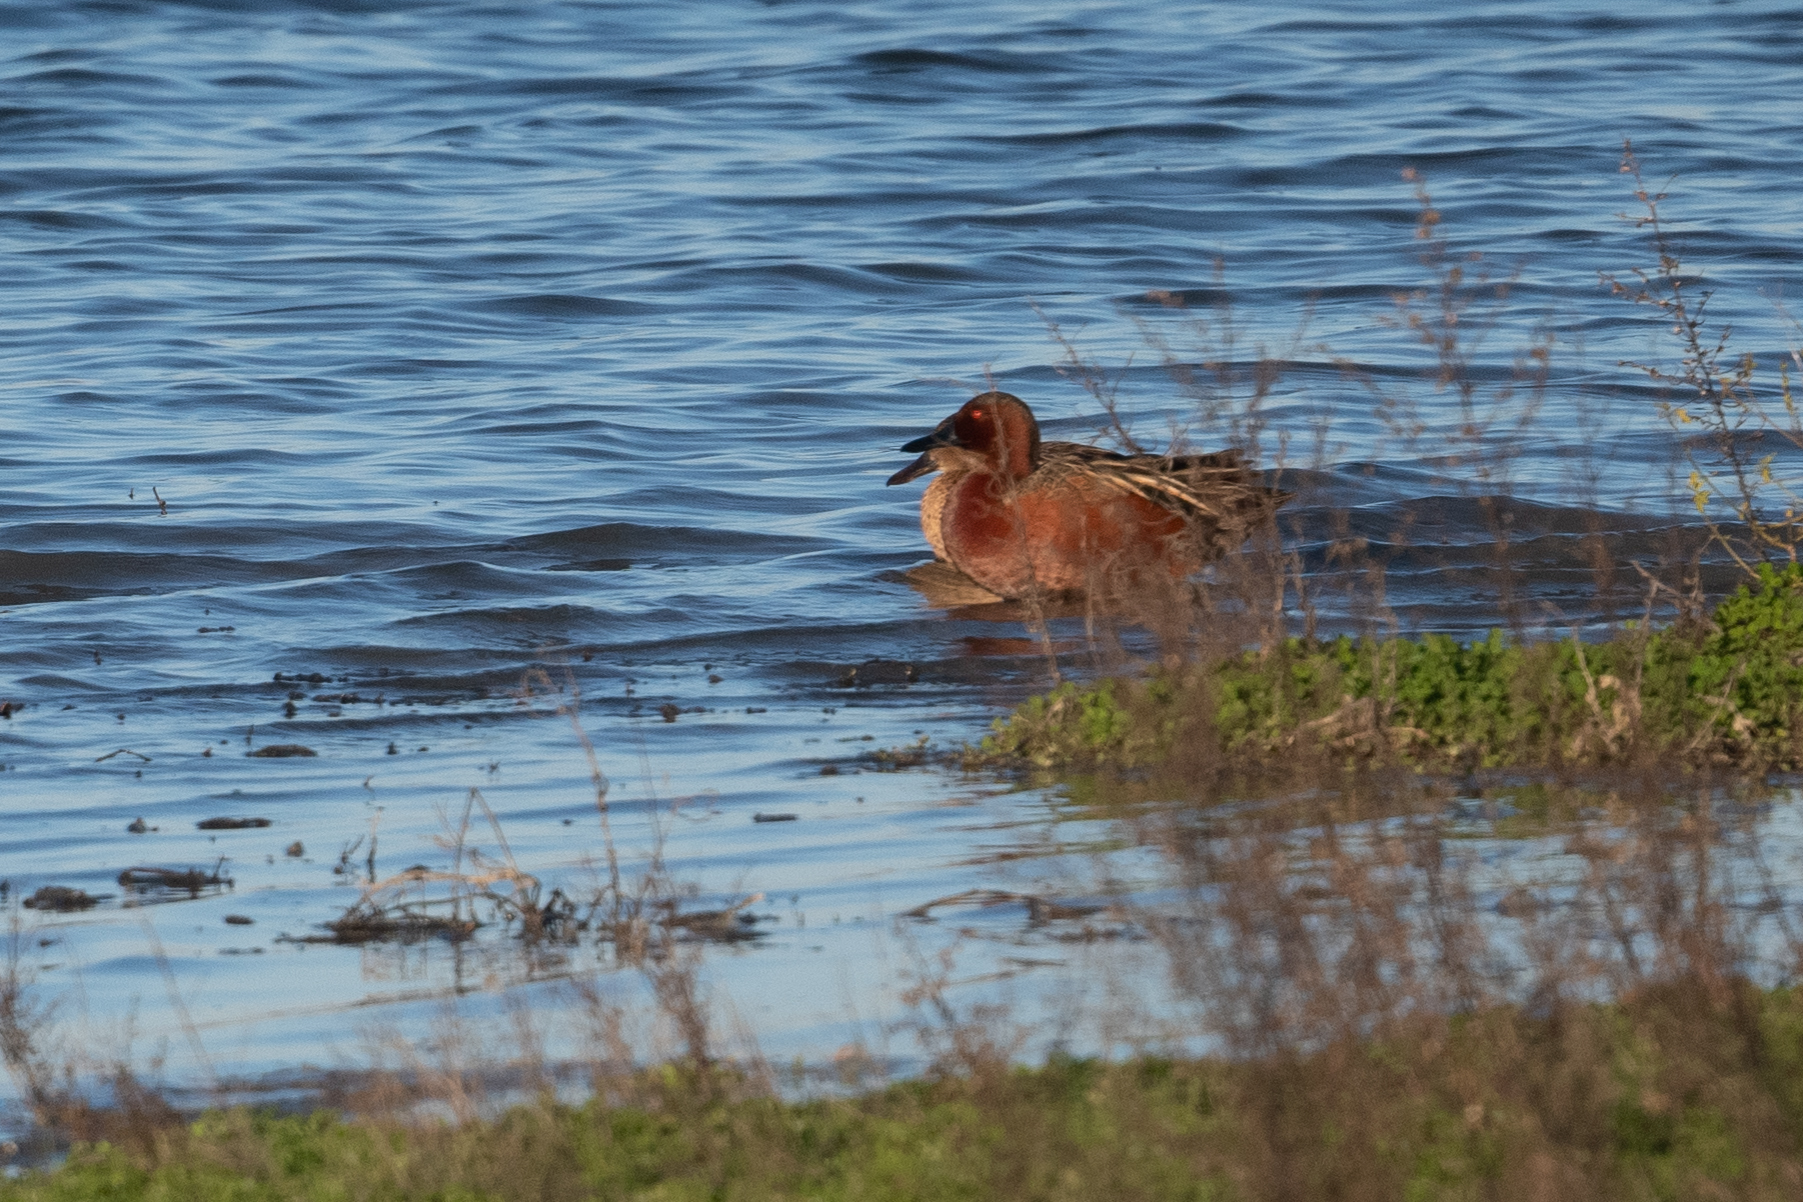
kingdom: Animalia
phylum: Chordata
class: Aves
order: Anseriformes
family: Anatidae
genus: Spatula
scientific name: Spatula cyanoptera
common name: Cinnamon teal
